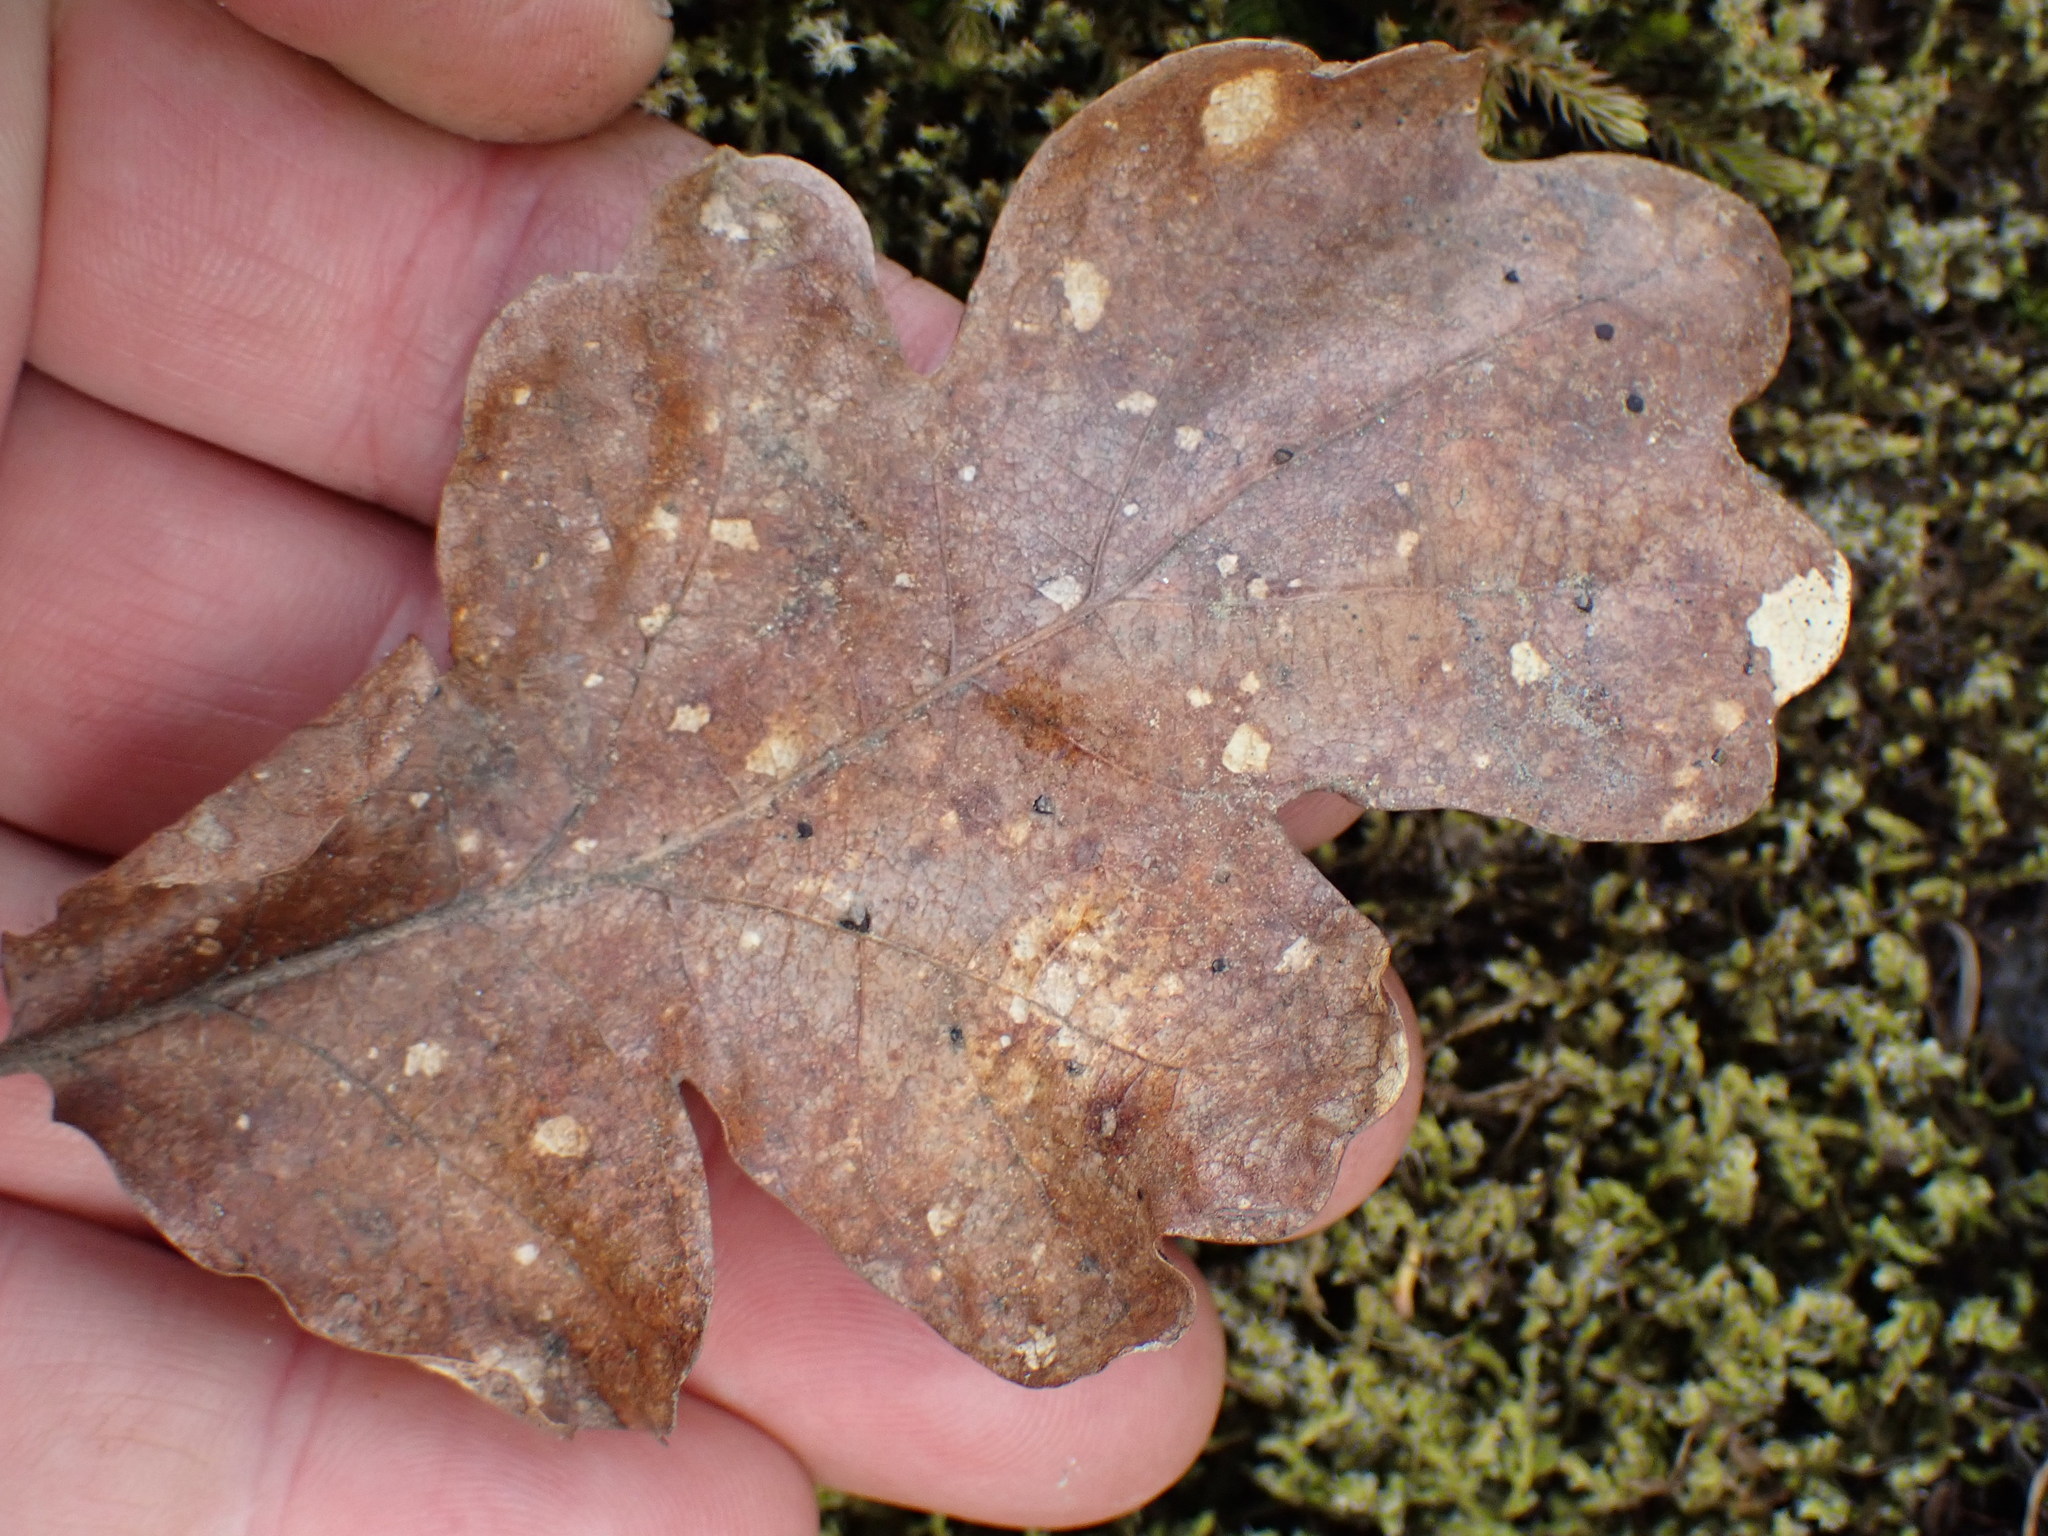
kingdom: Plantae
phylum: Tracheophyta
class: Magnoliopsida
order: Fagales
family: Fagaceae
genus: Quercus
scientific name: Quercus garryana
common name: Garry oak
